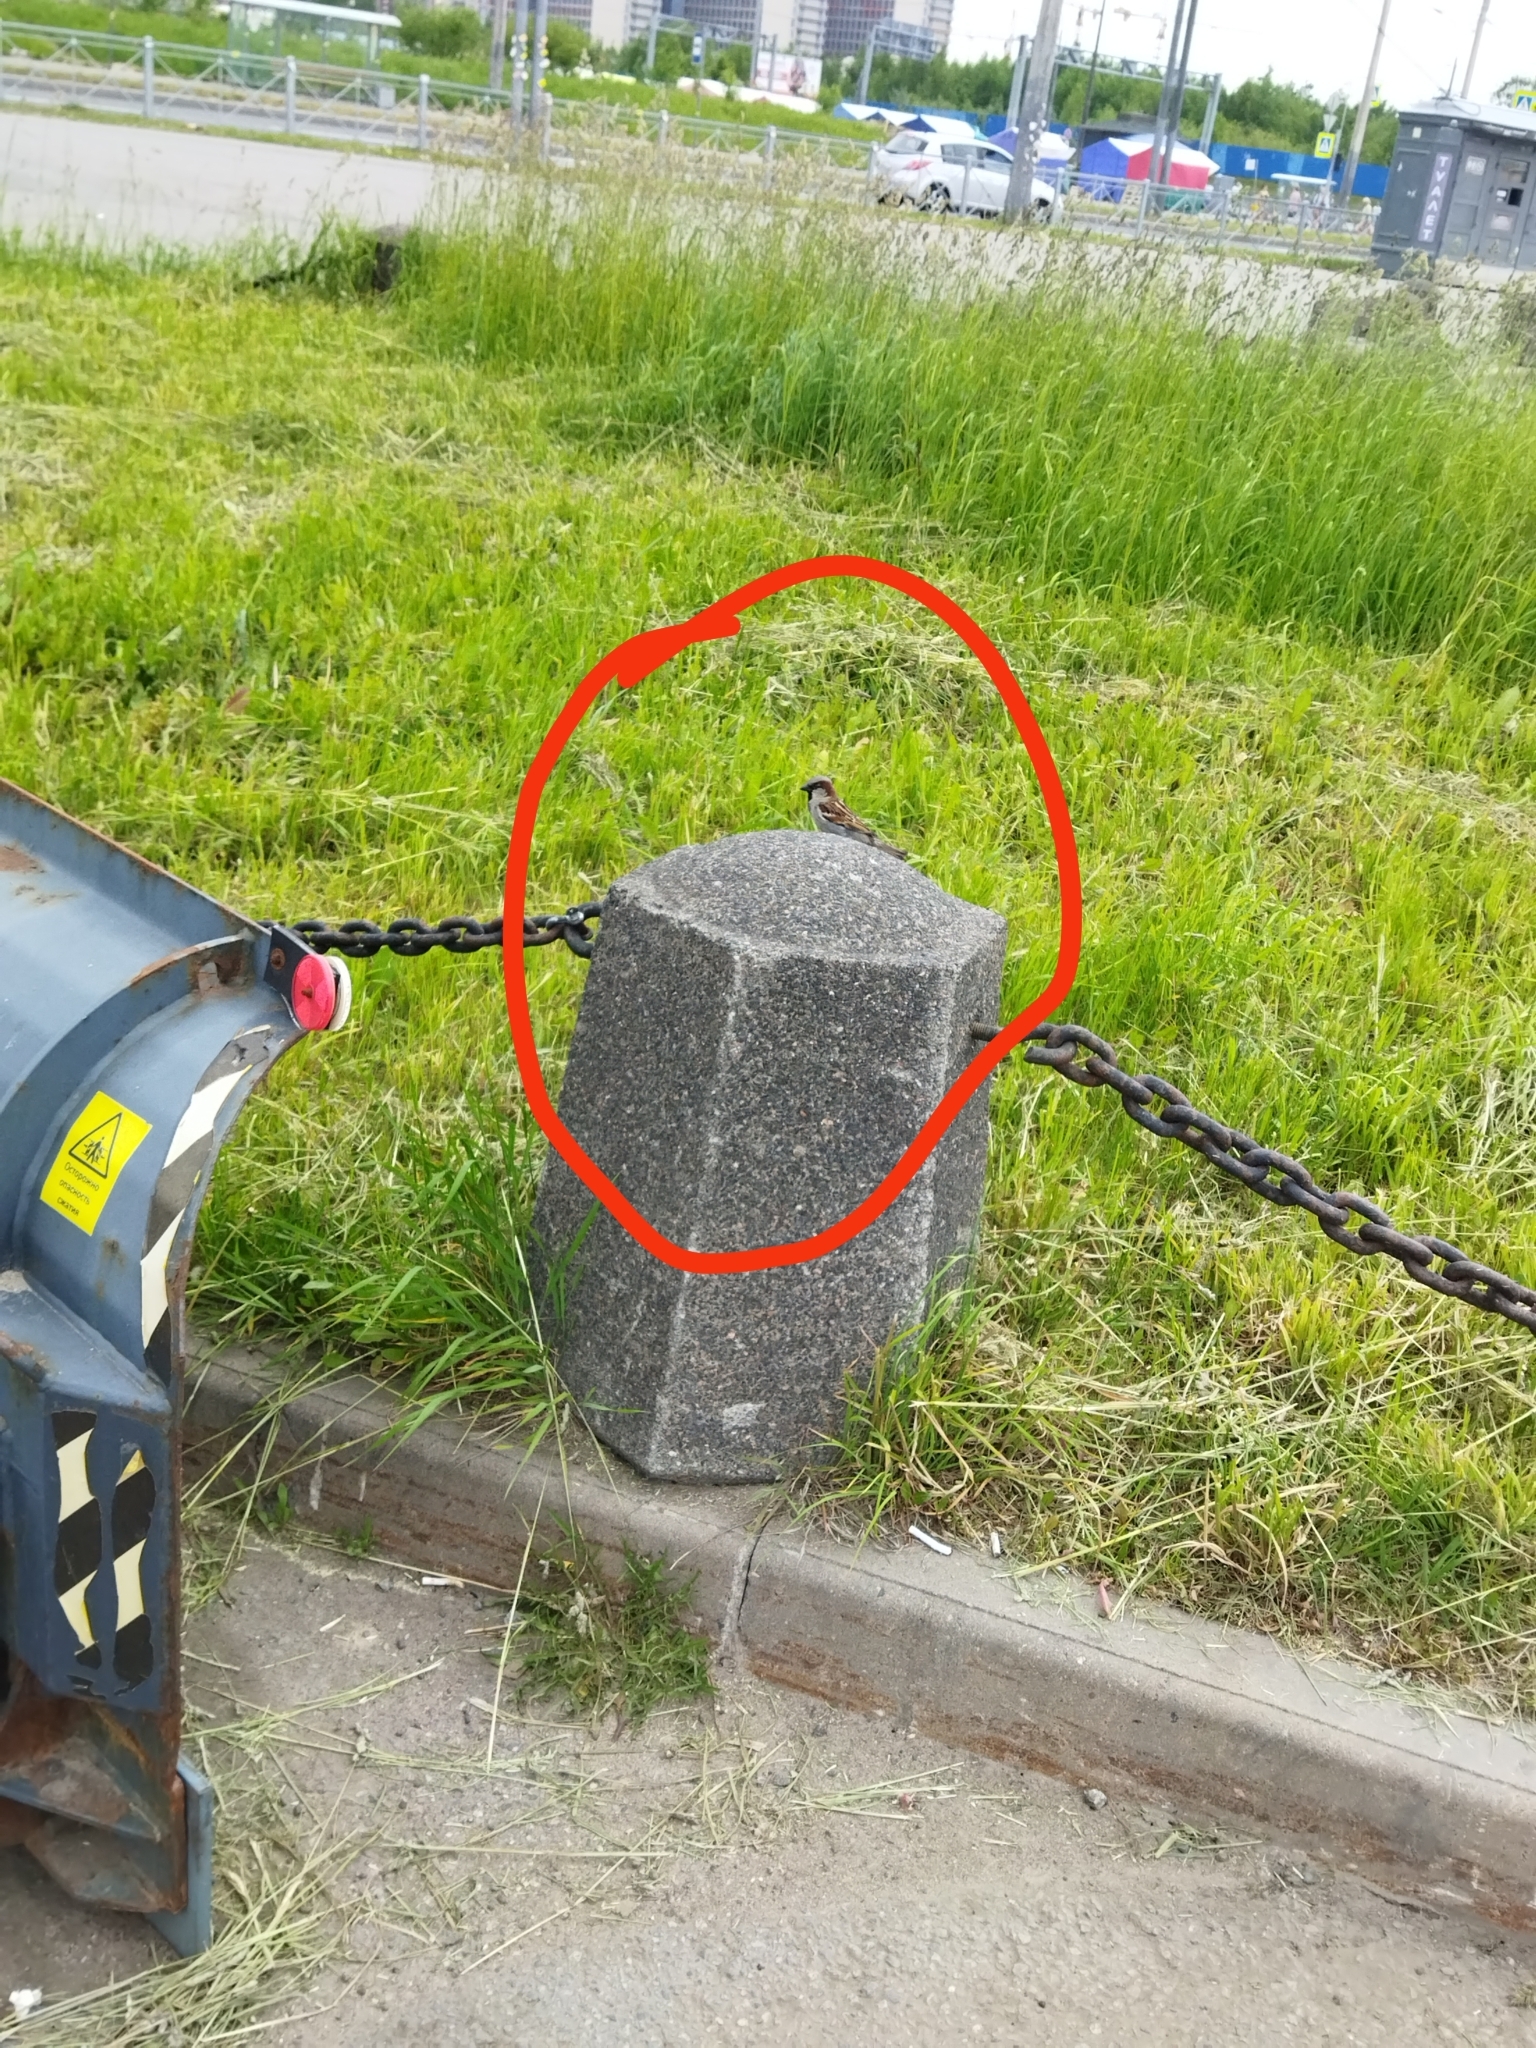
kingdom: Animalia
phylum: Chordata
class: Aves
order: Passeriformes
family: Passeridae
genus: Passer
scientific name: Passer domesticus
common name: House sparrow
